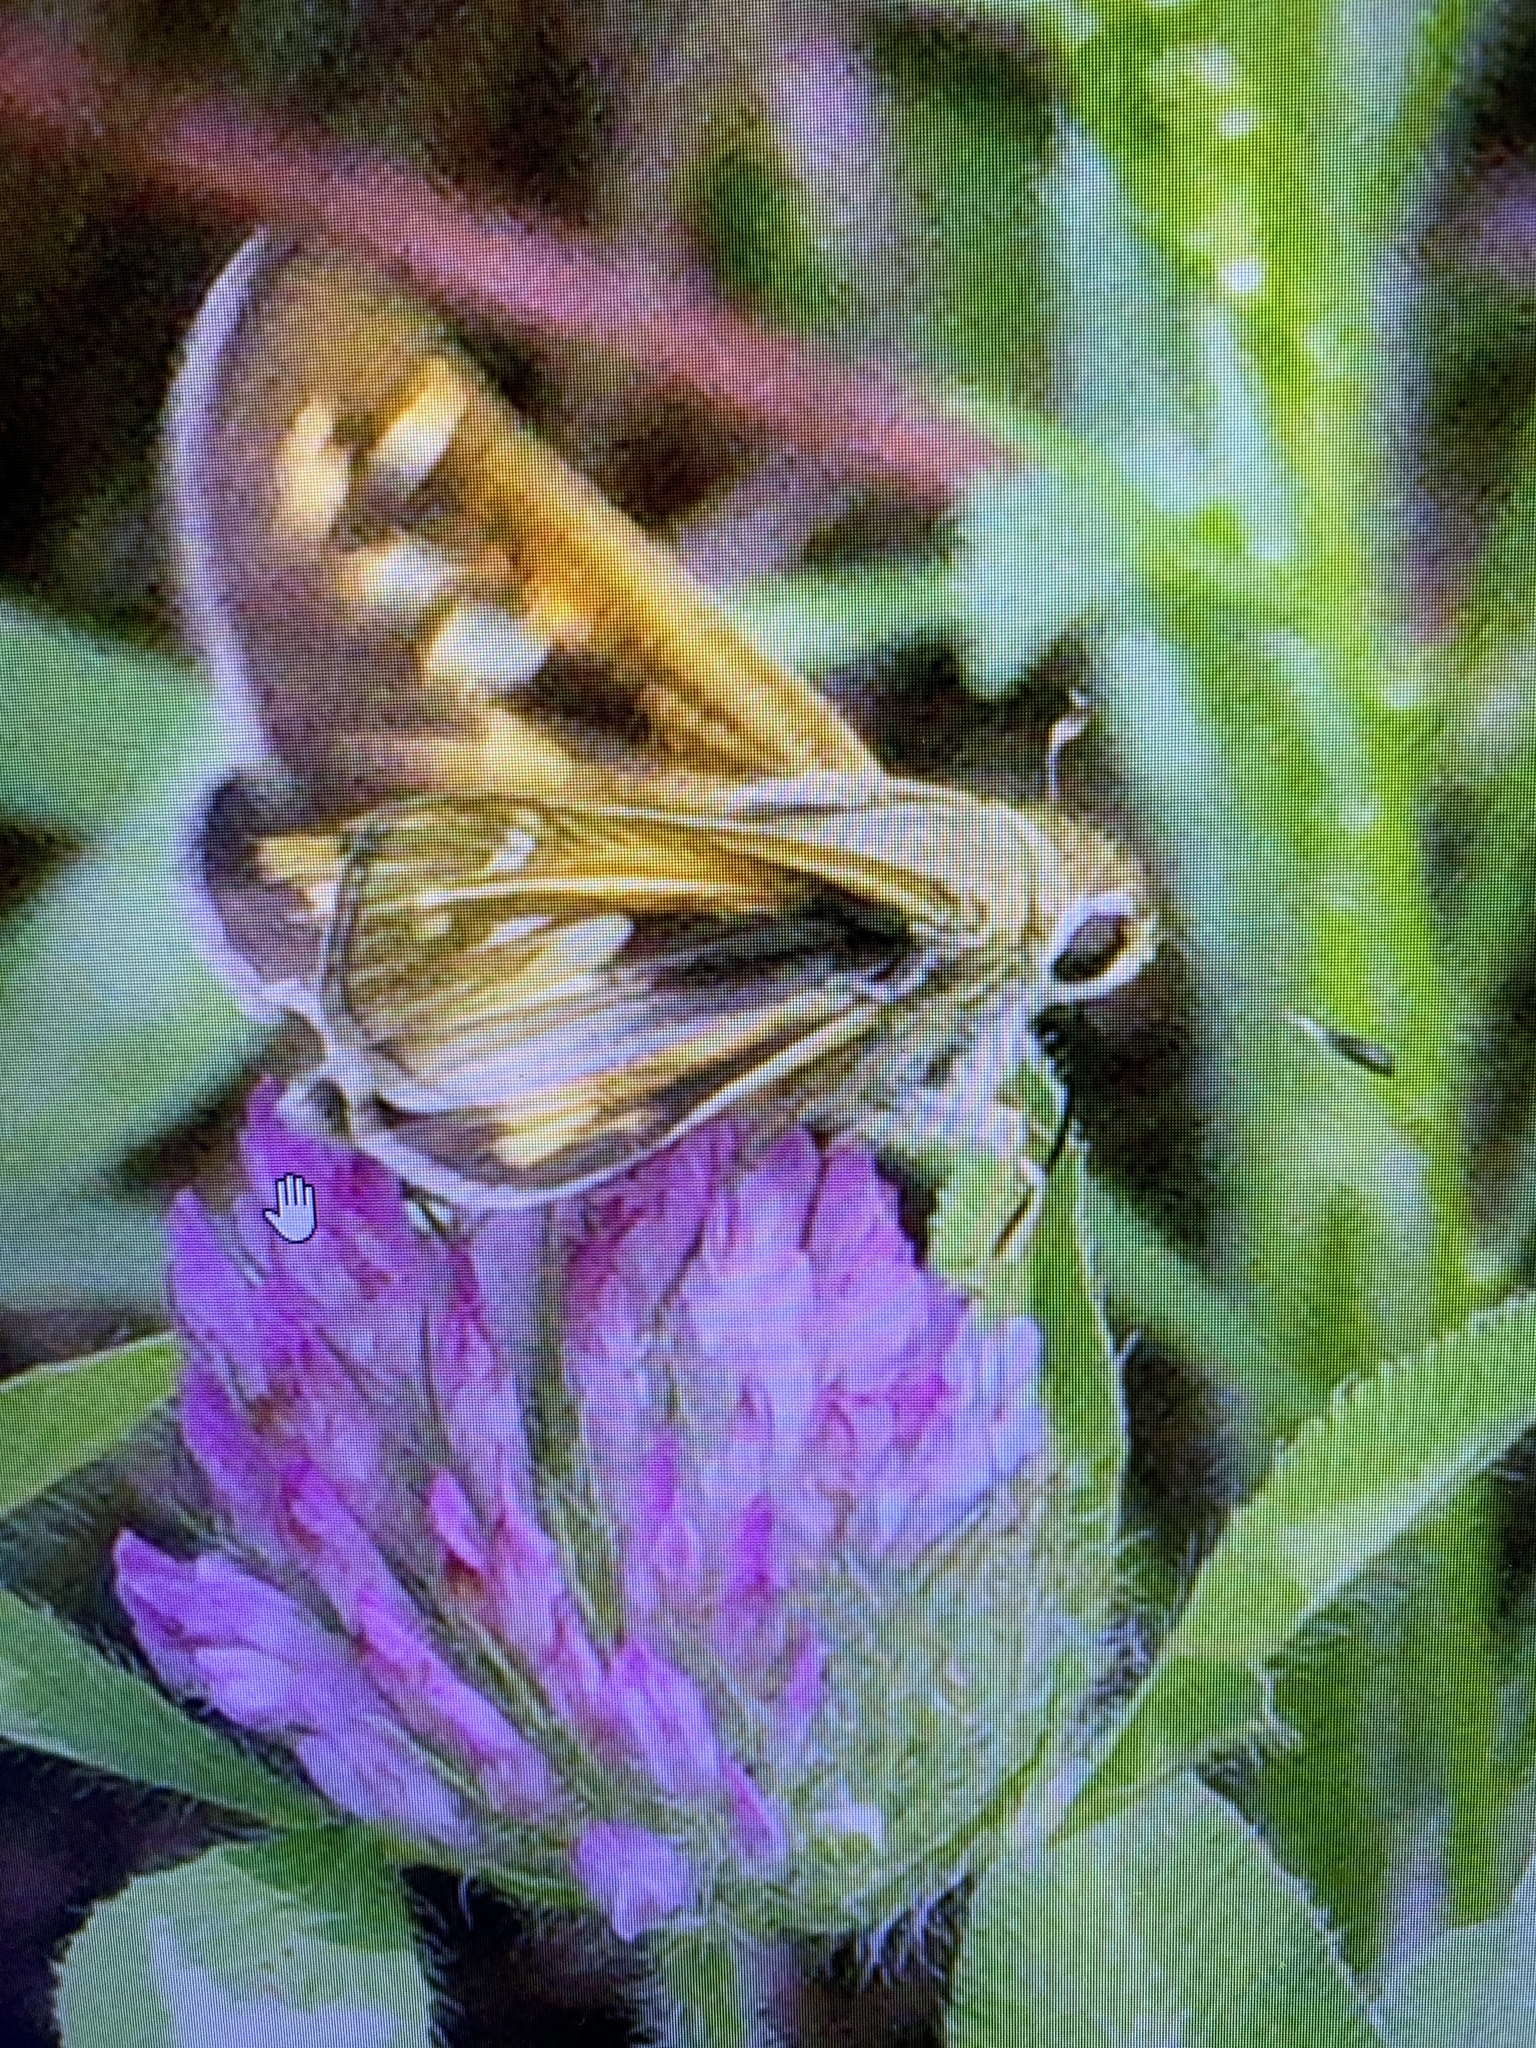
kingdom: Animalia
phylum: Arthropoda
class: Insecta
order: Lepidoptera
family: Hesperiidae
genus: Atalopedes
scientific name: Atalopedes
